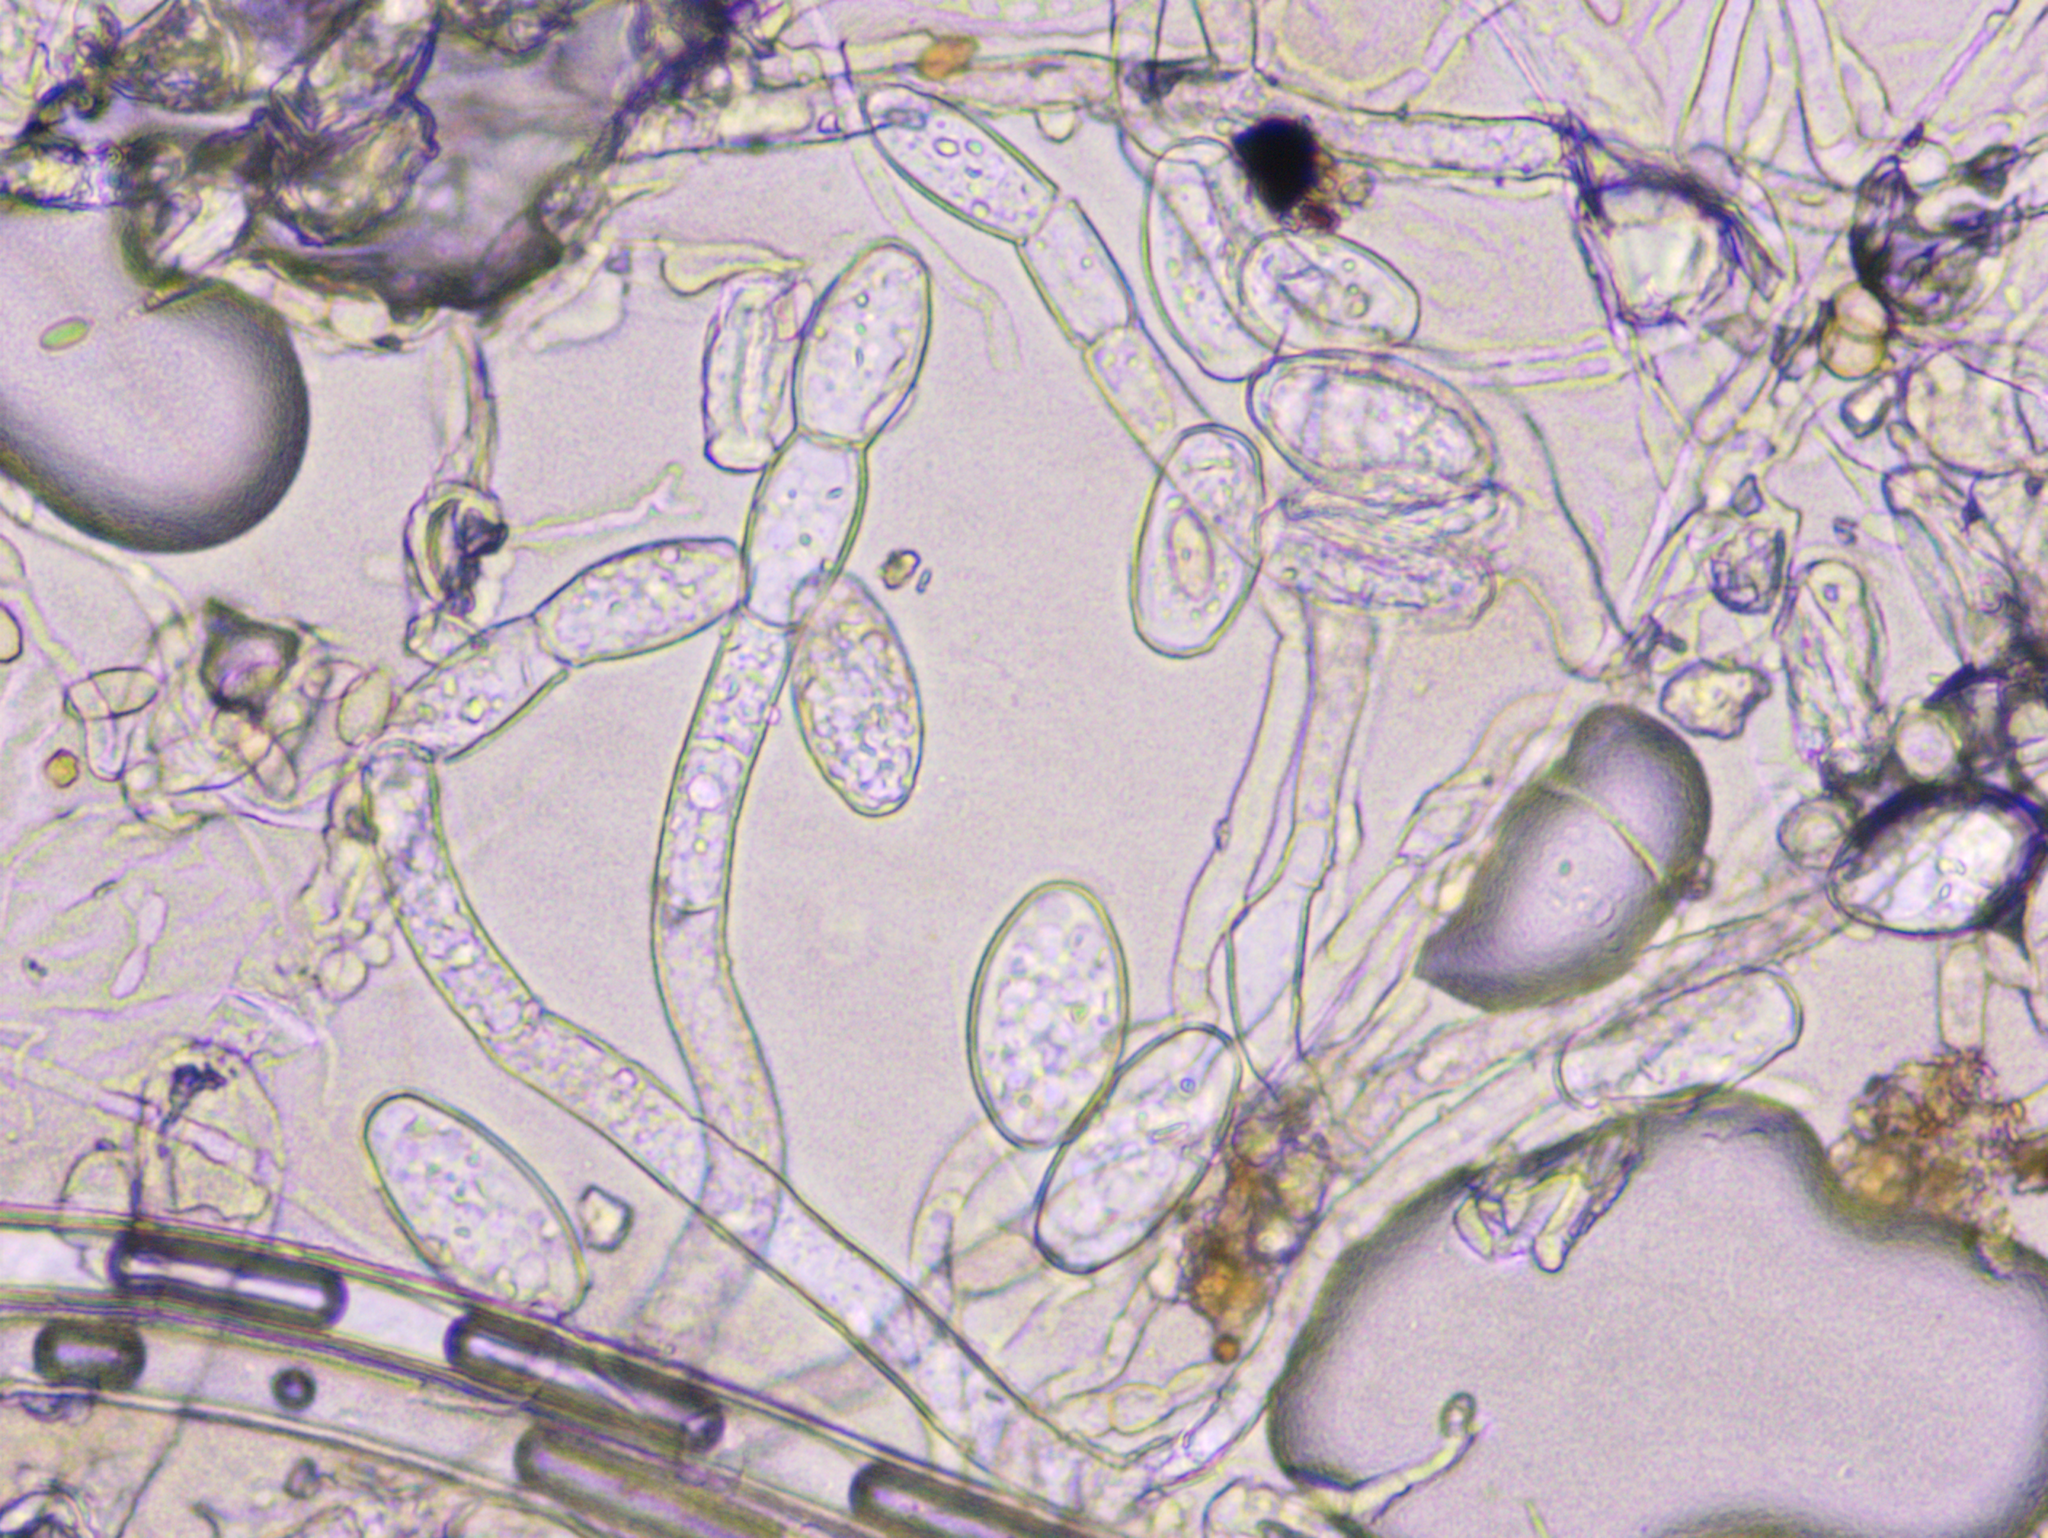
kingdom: Fungi
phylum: Ascomycota
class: Leotiomycetes
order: Helotiales
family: Erysiphaceae
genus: Podosphaera
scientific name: Podosphaera aphanis
